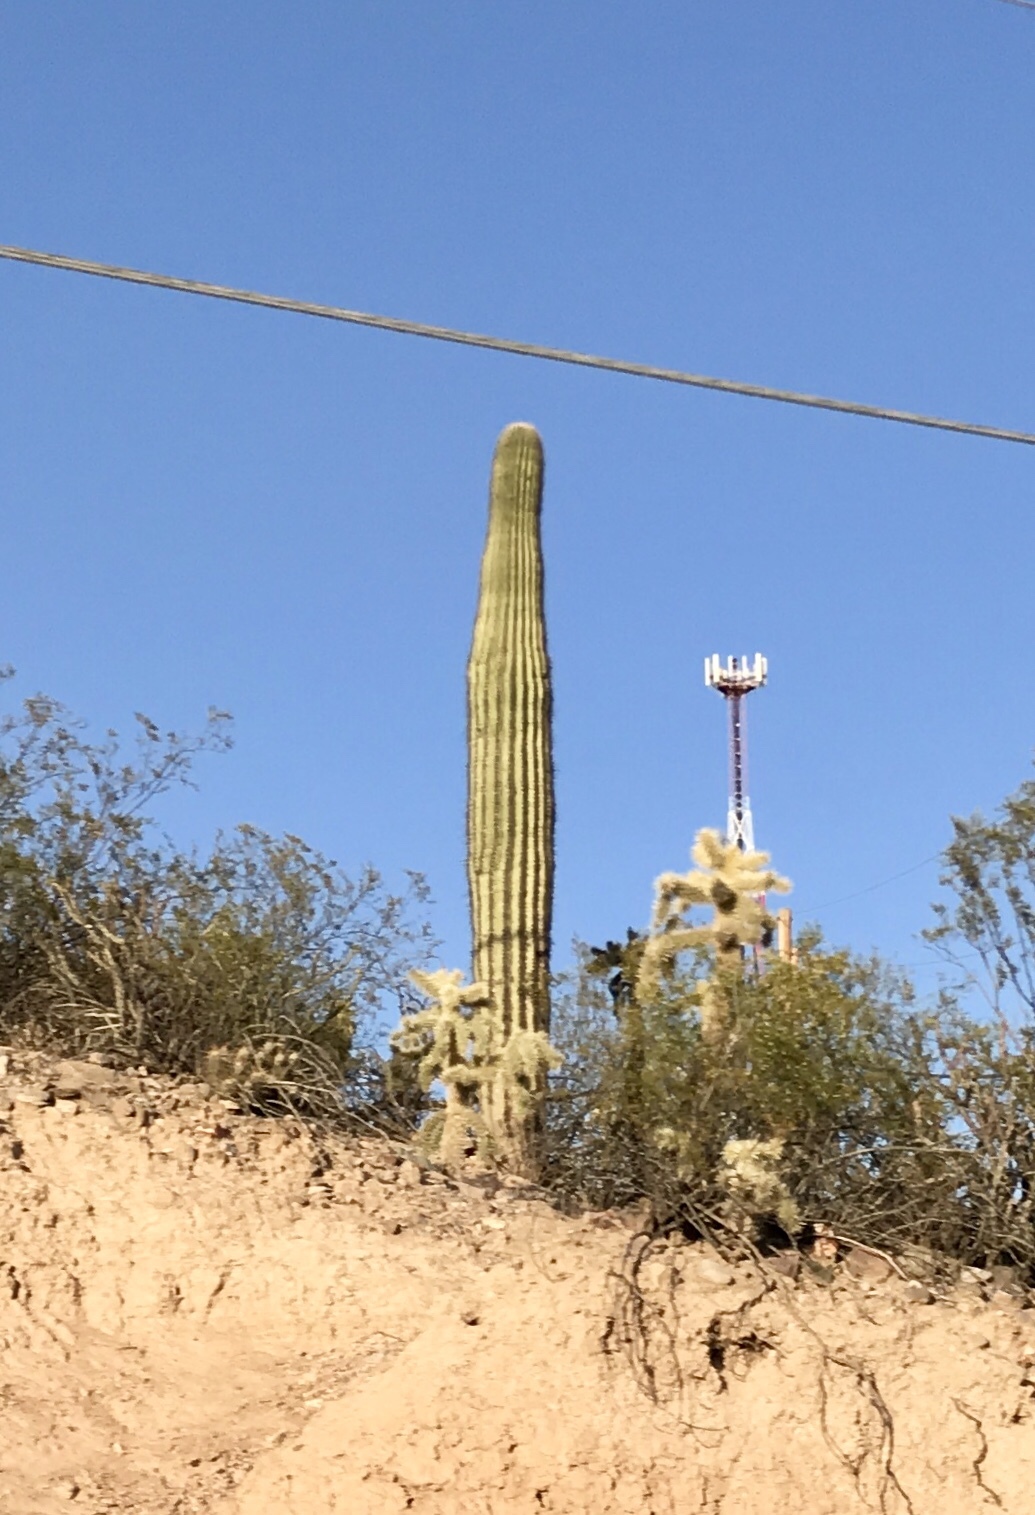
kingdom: Plantae
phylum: Tracheophyta
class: Magnoliopsida
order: Caryophyllales
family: Cactaceae
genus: Carnegiea
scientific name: Carnegiea gigantea
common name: Saguaro
